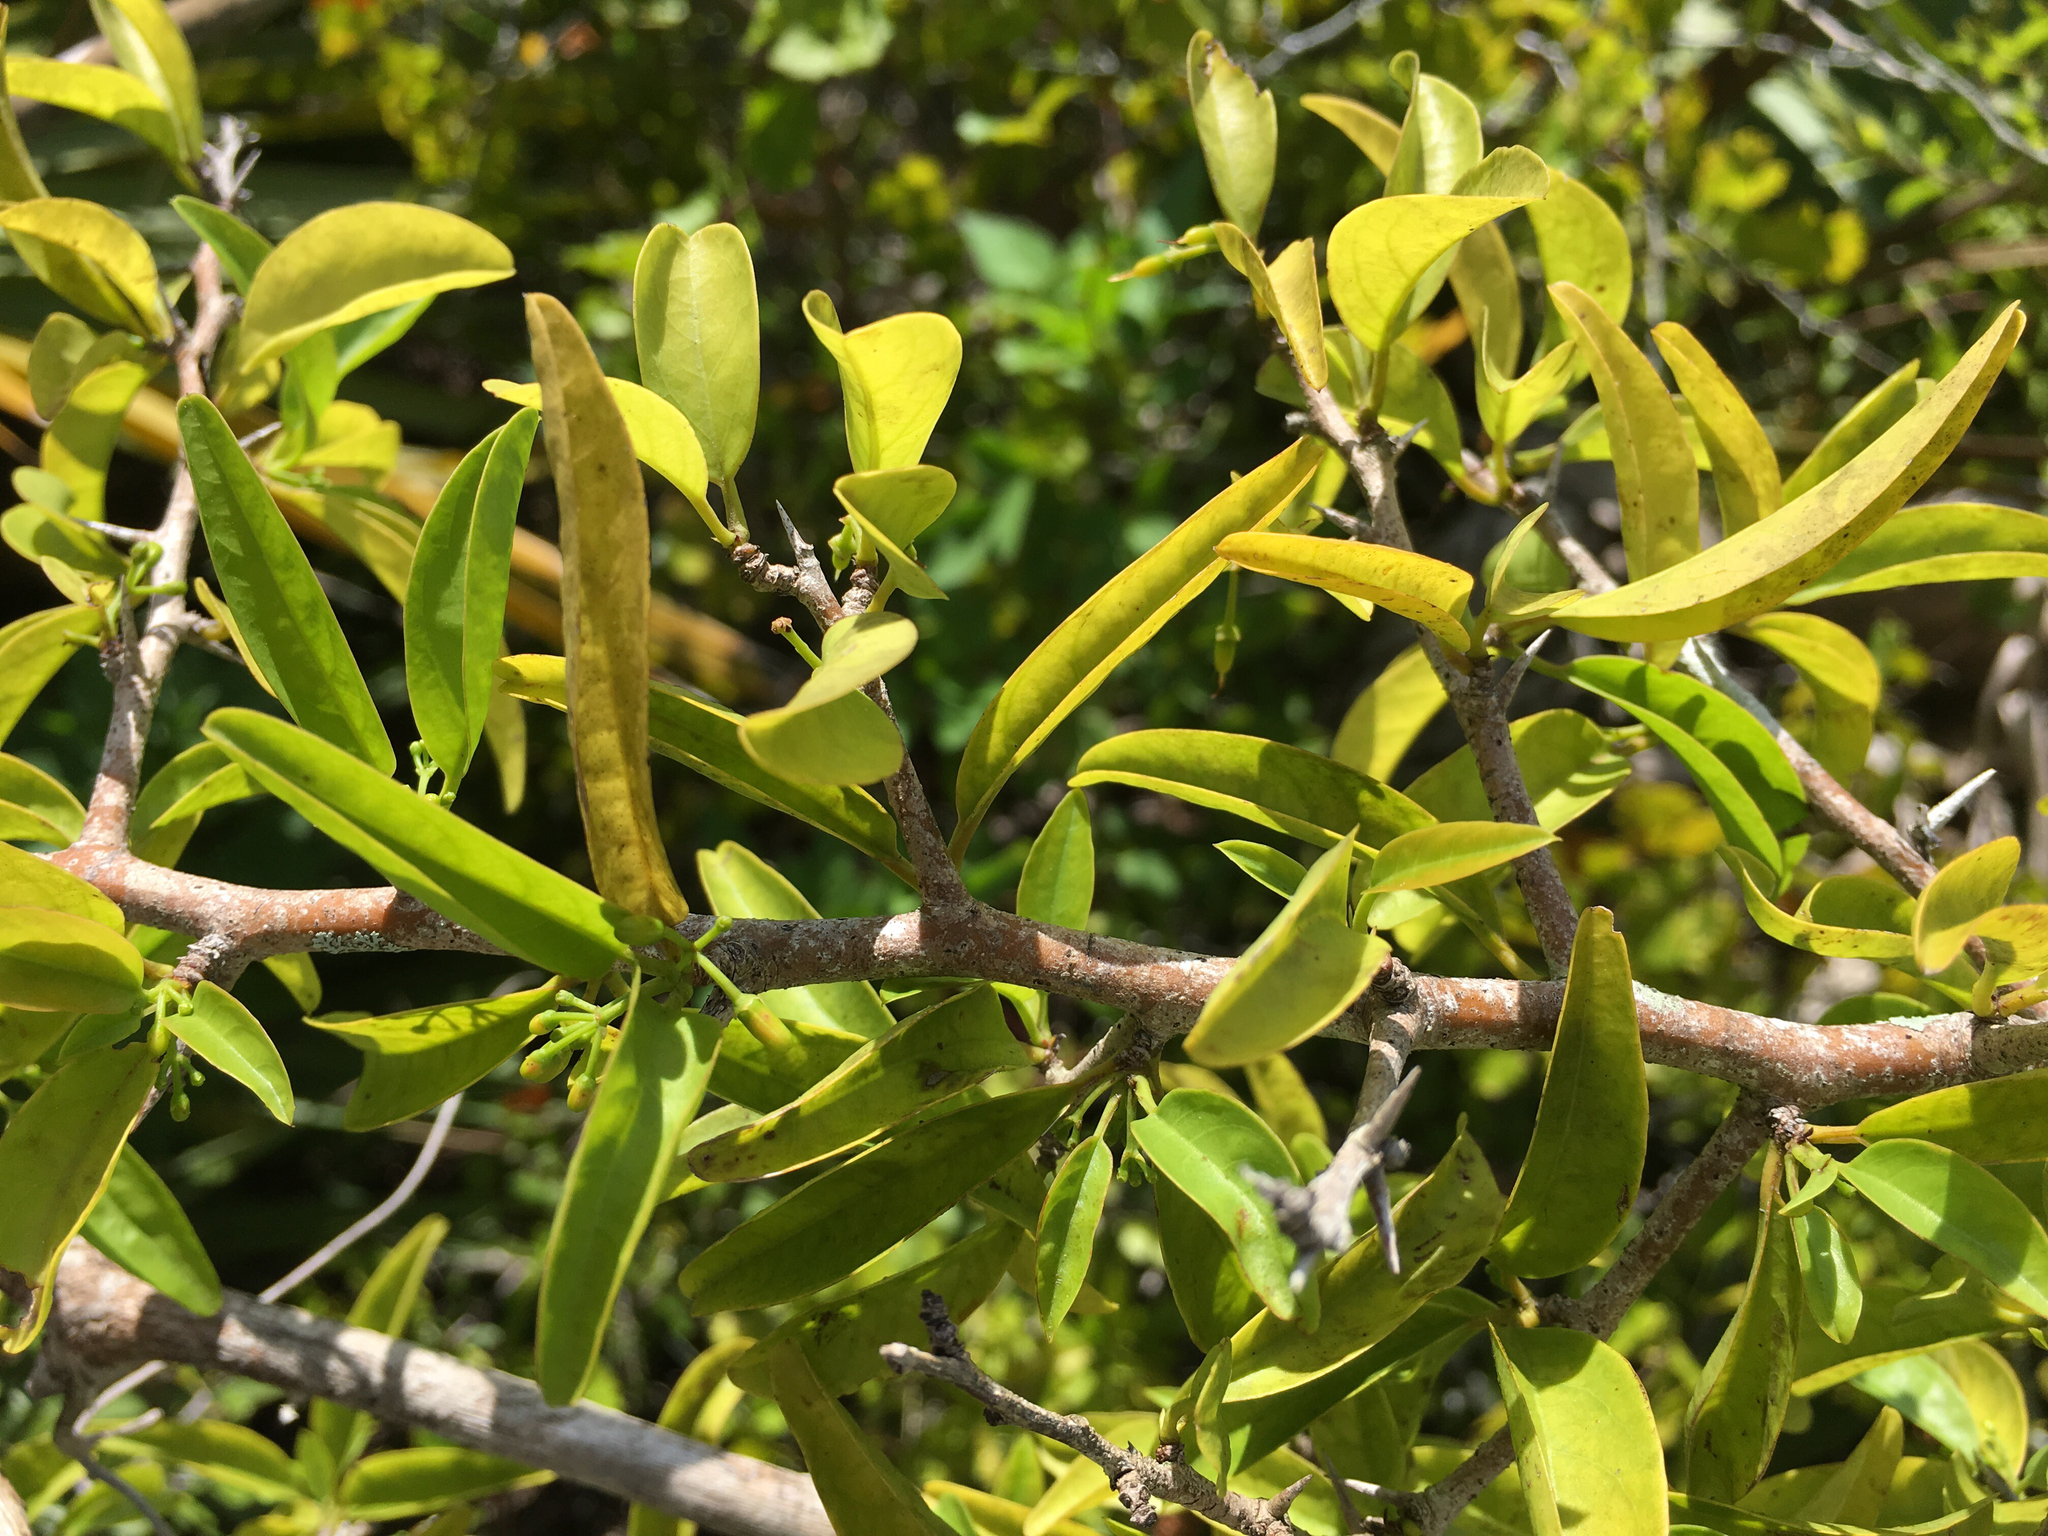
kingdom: Plantae
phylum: Tracheophyta
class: Magnoliopsida
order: Santalales
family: Ximeniaceae
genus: Ximenia
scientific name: Ximenia americana
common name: Tallowwood
